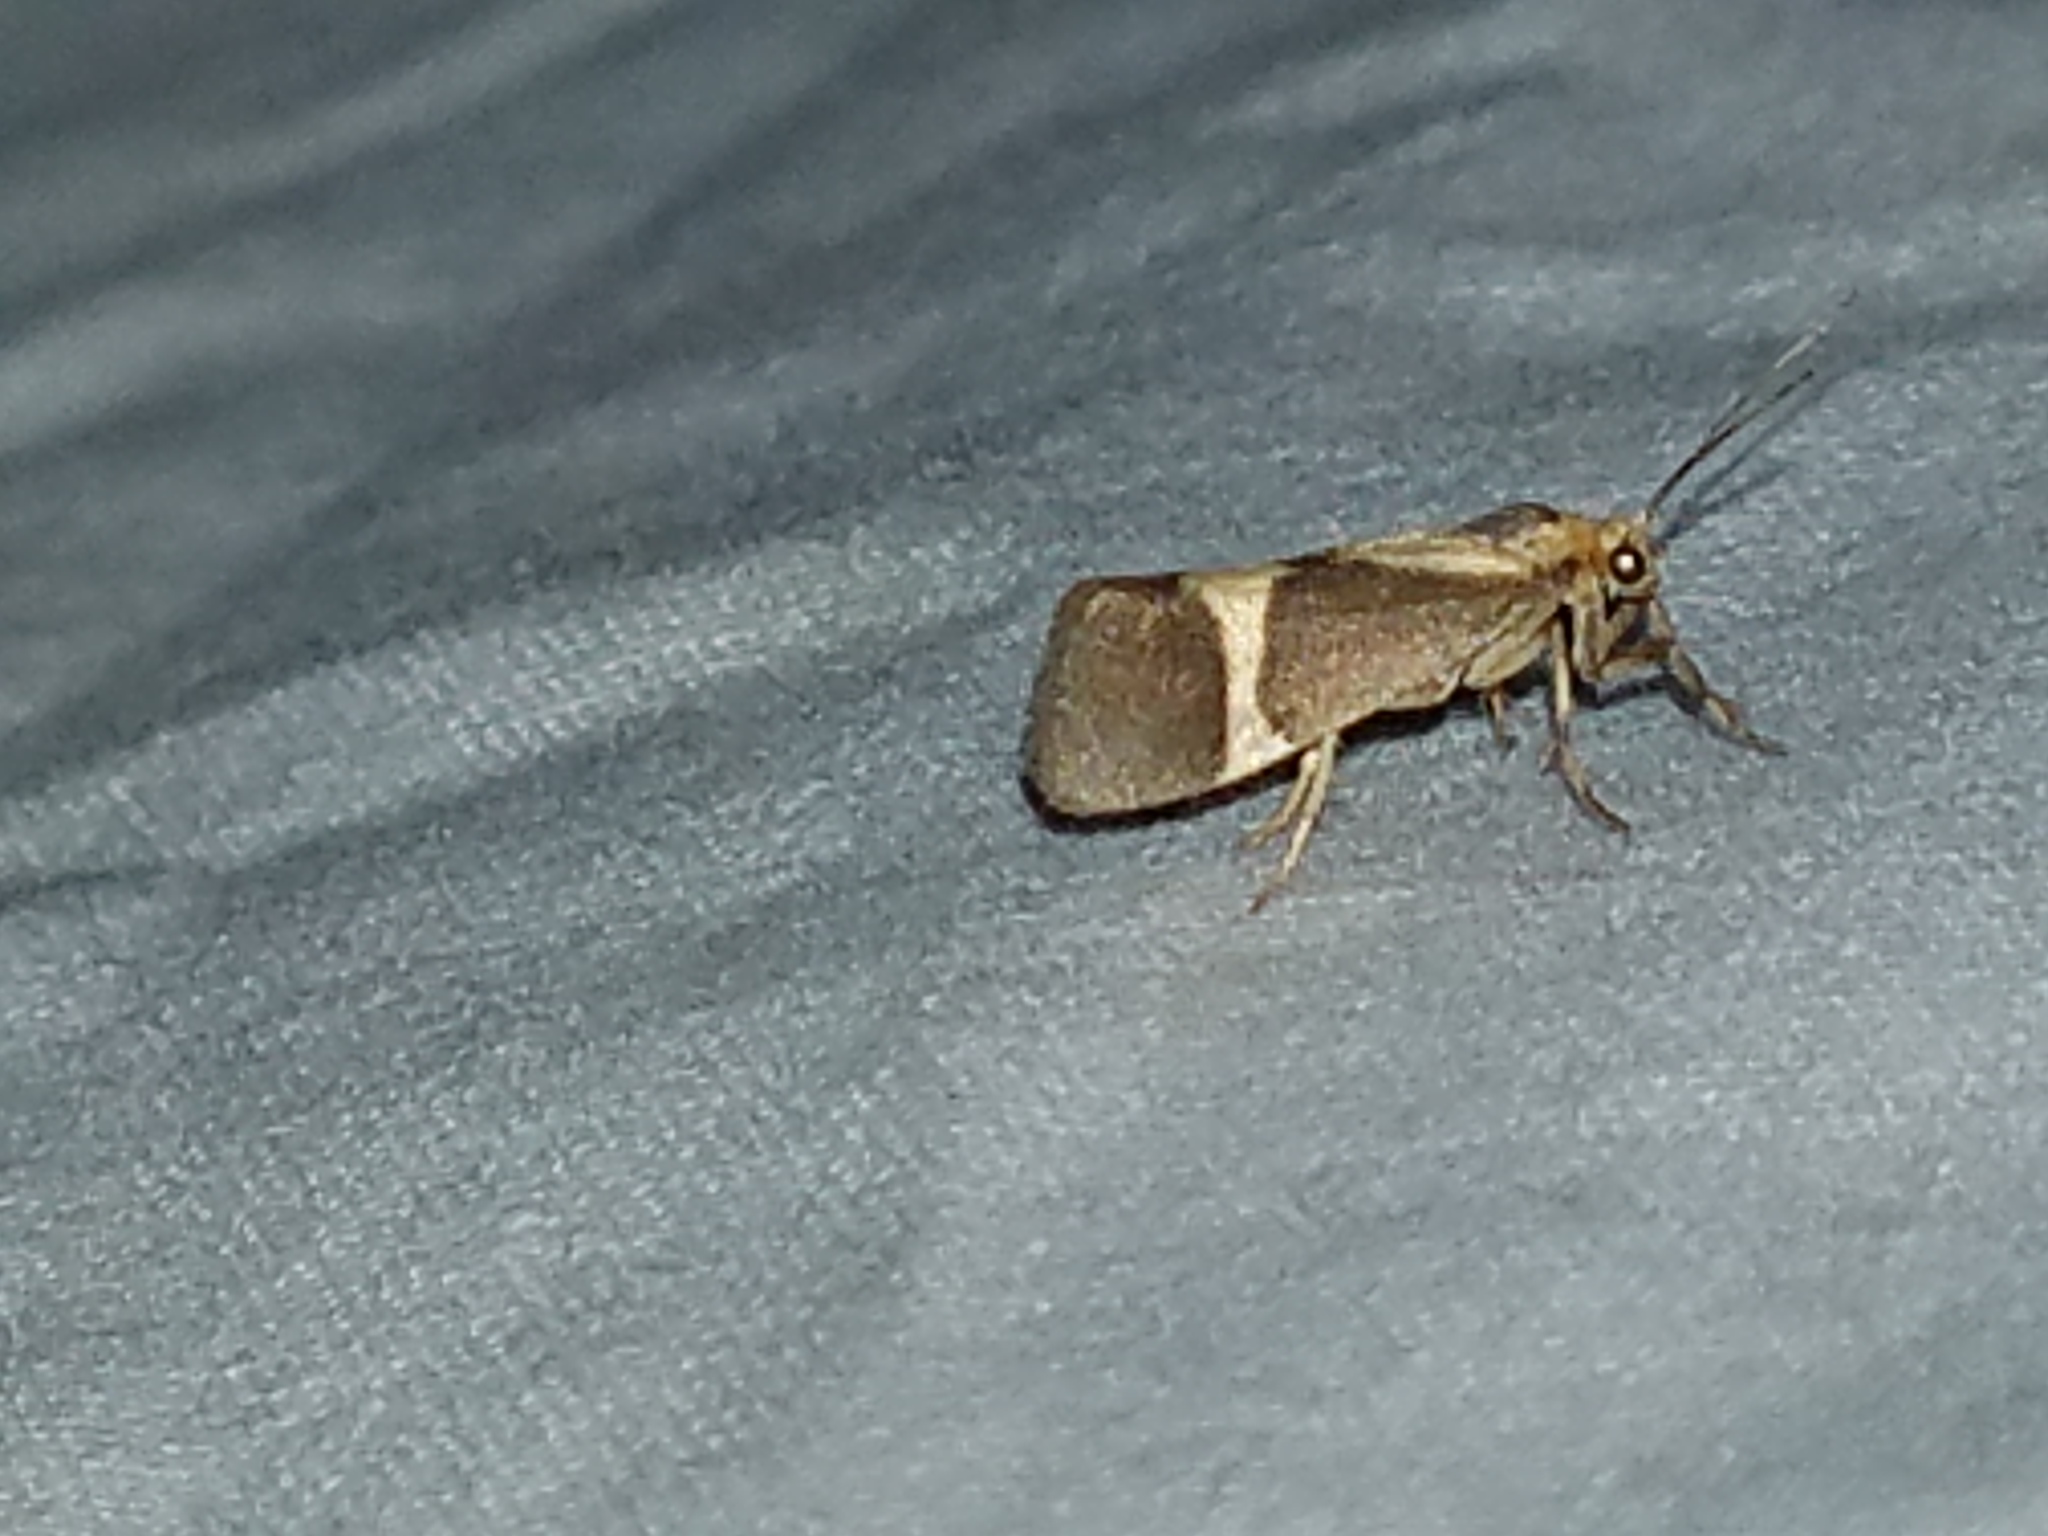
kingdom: Animalia
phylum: Arthropoda
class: Insecta
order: Lepidoptera
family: Erebidae
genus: Cisthene
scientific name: Cisthene subrufa
